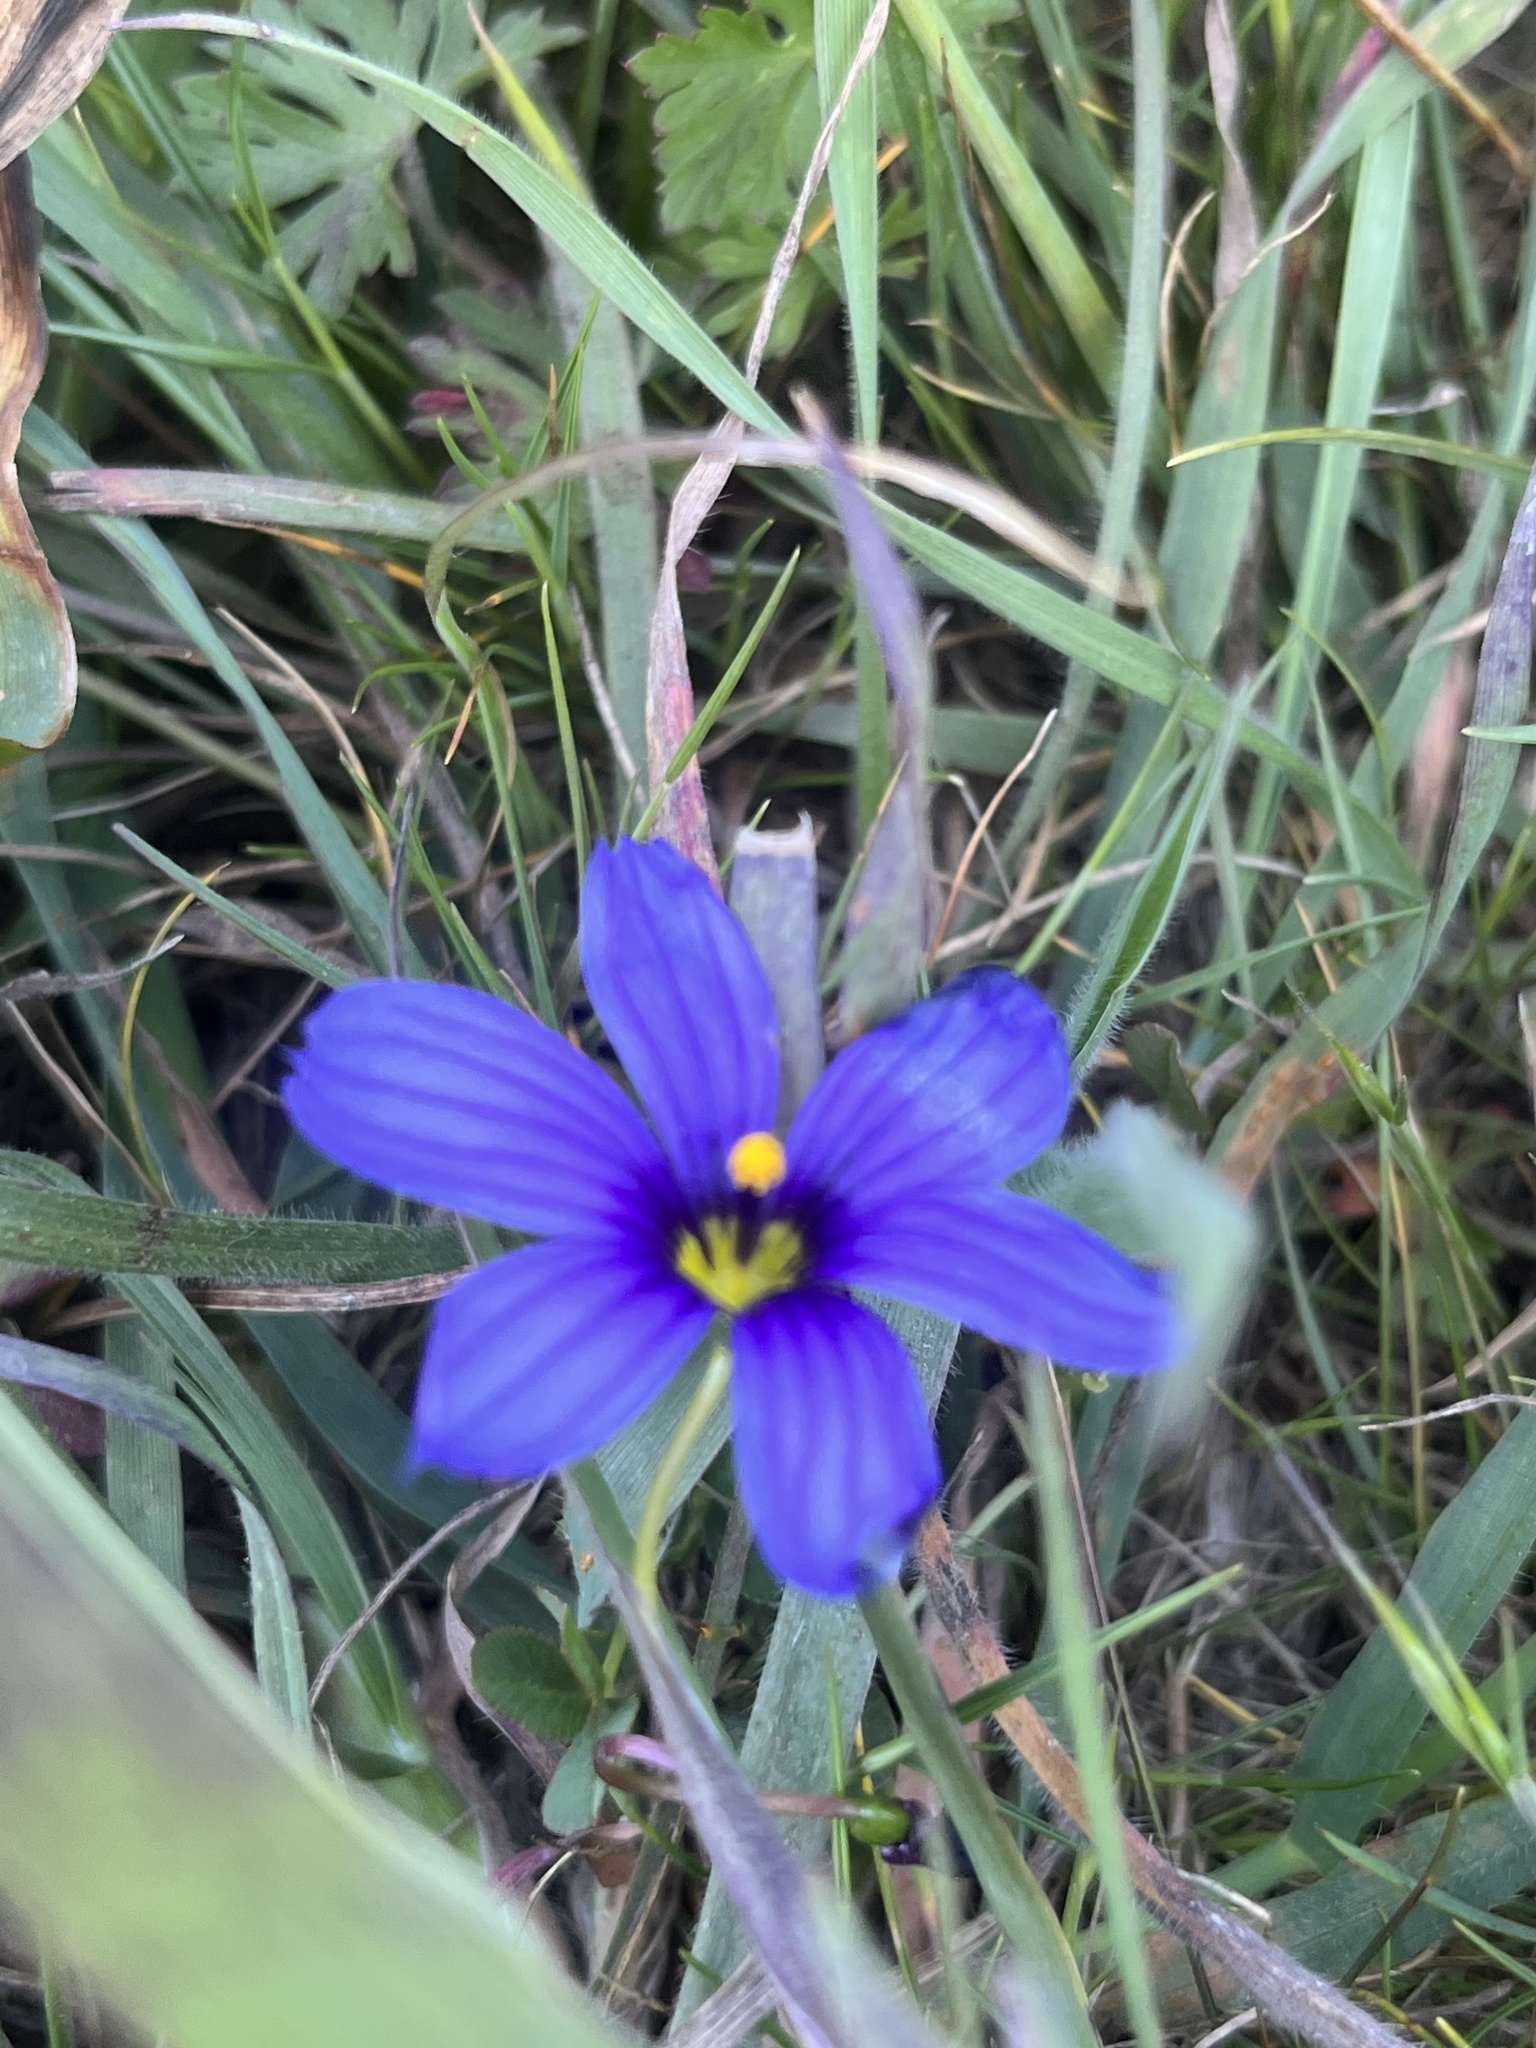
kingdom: Plantae
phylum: Tracheophyta
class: Liliopsida
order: Asparagales
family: Iridaceae
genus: Sisyrinchium
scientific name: Sisyrinchium bellum
